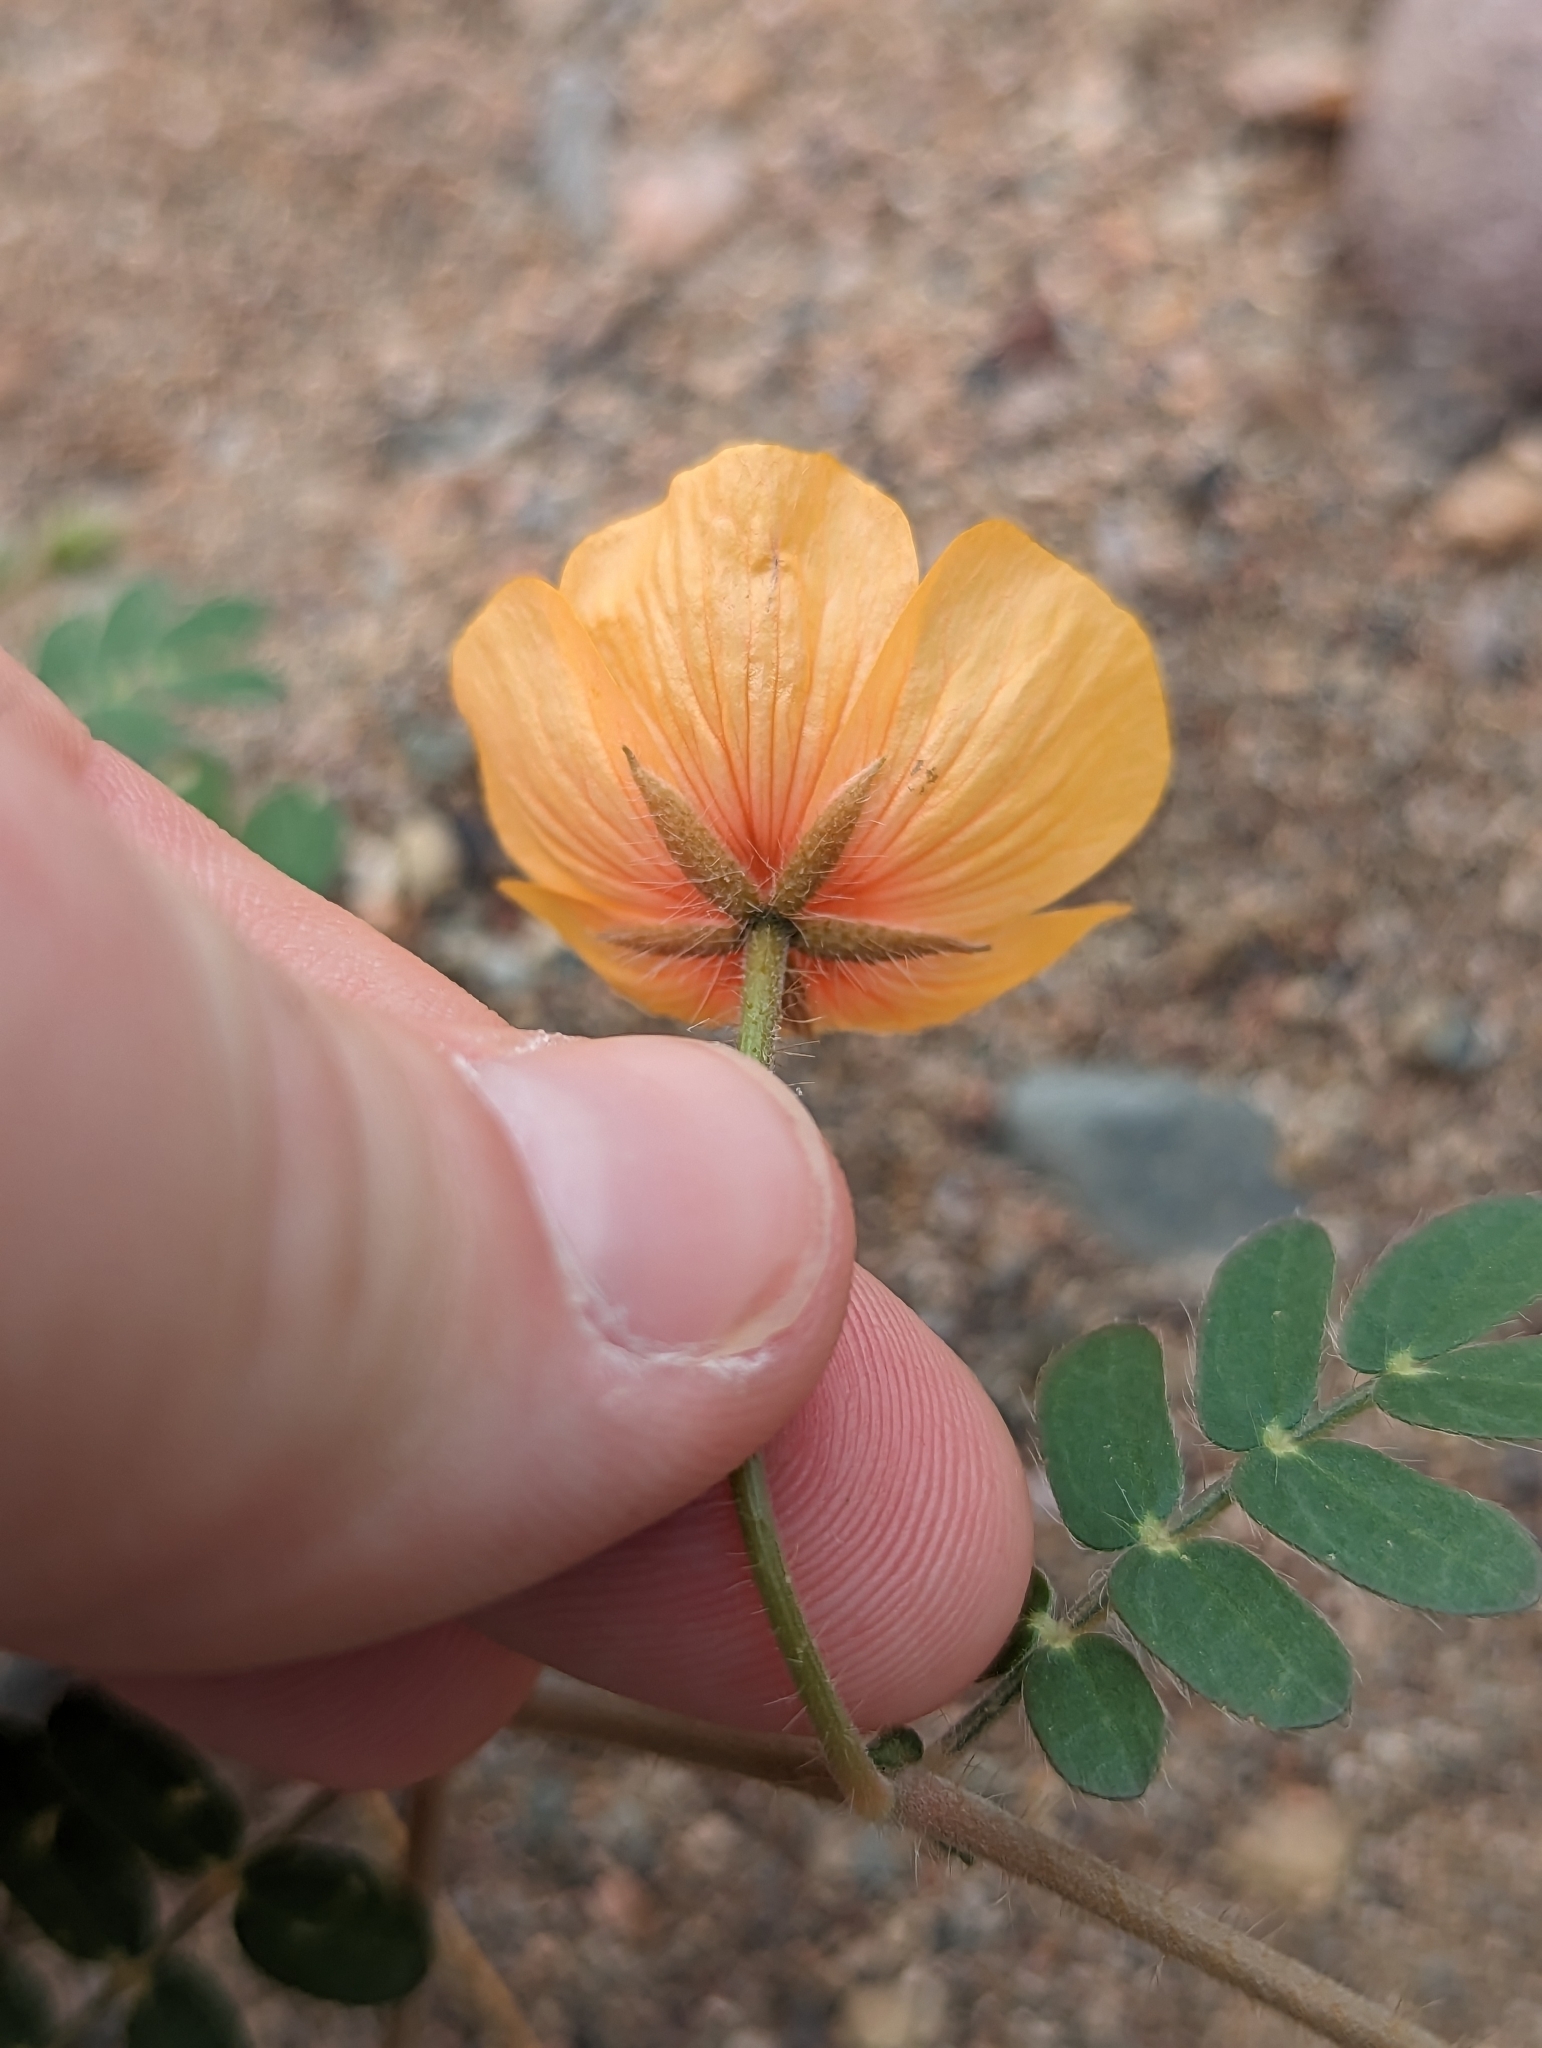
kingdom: Plantae
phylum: Tracheophyta
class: Magnoliopsida
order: Zygophyllales
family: Zygophyllaceae
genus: Kallstroemia
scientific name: Kallstroemia grandiflora
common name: Arizona-poppy
